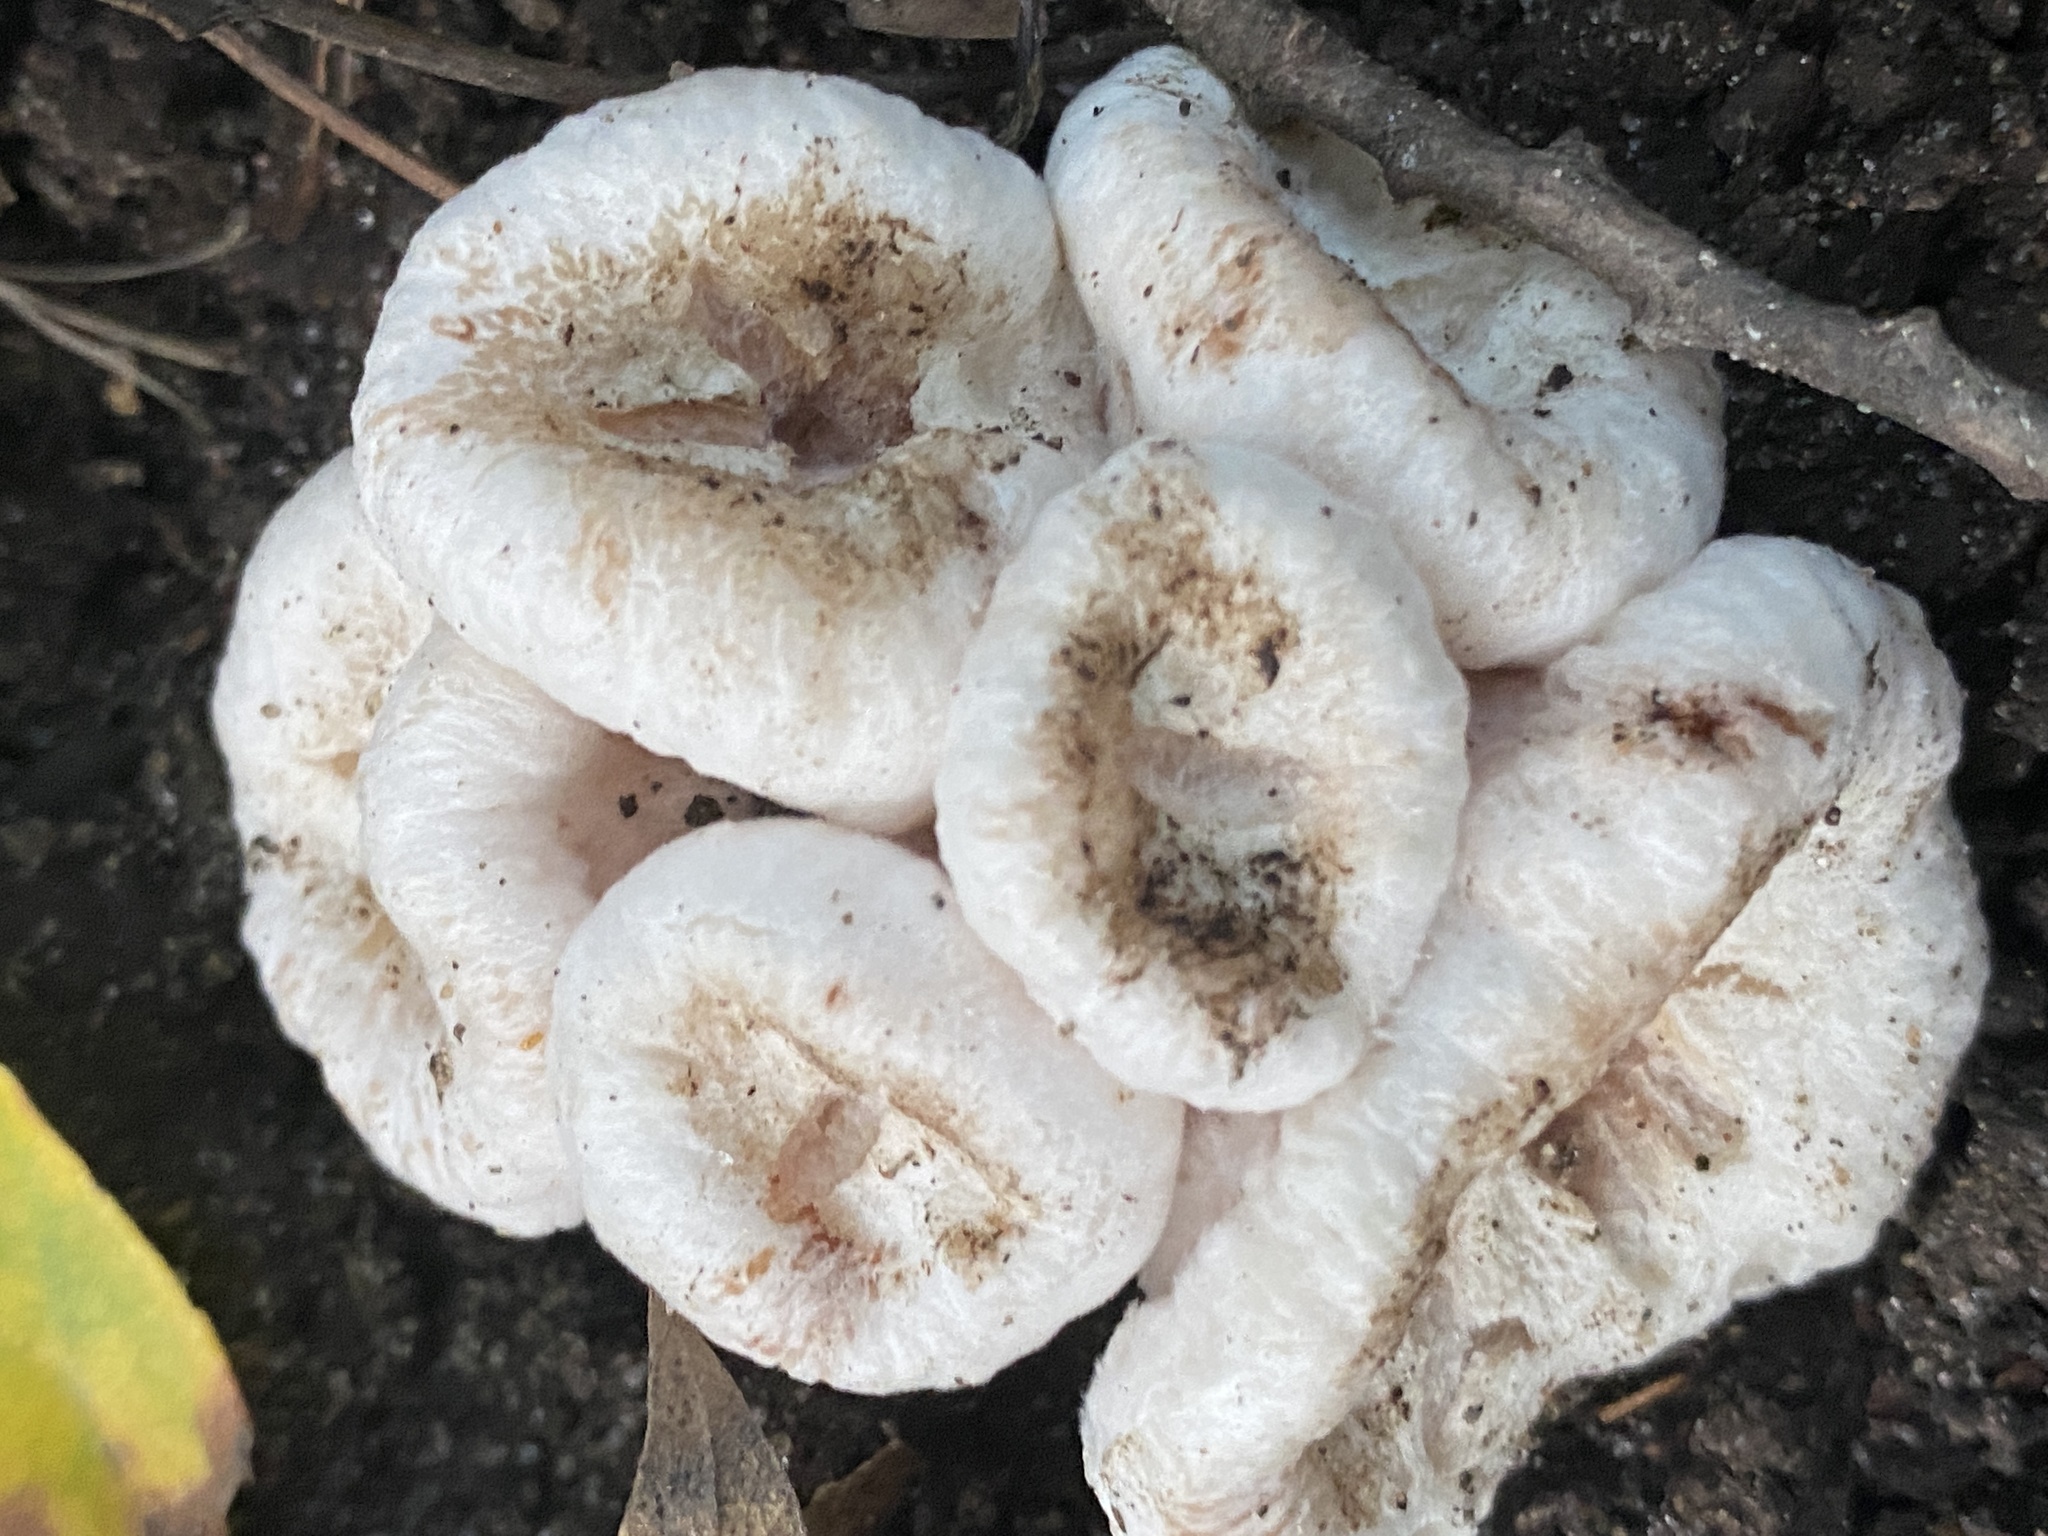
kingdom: Fungi
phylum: Basidiomycota
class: Agaricomycetes
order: Agaricales
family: Entolomataceae
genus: Entoloma
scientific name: Entoloma abortivum
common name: Aborted entoloma
